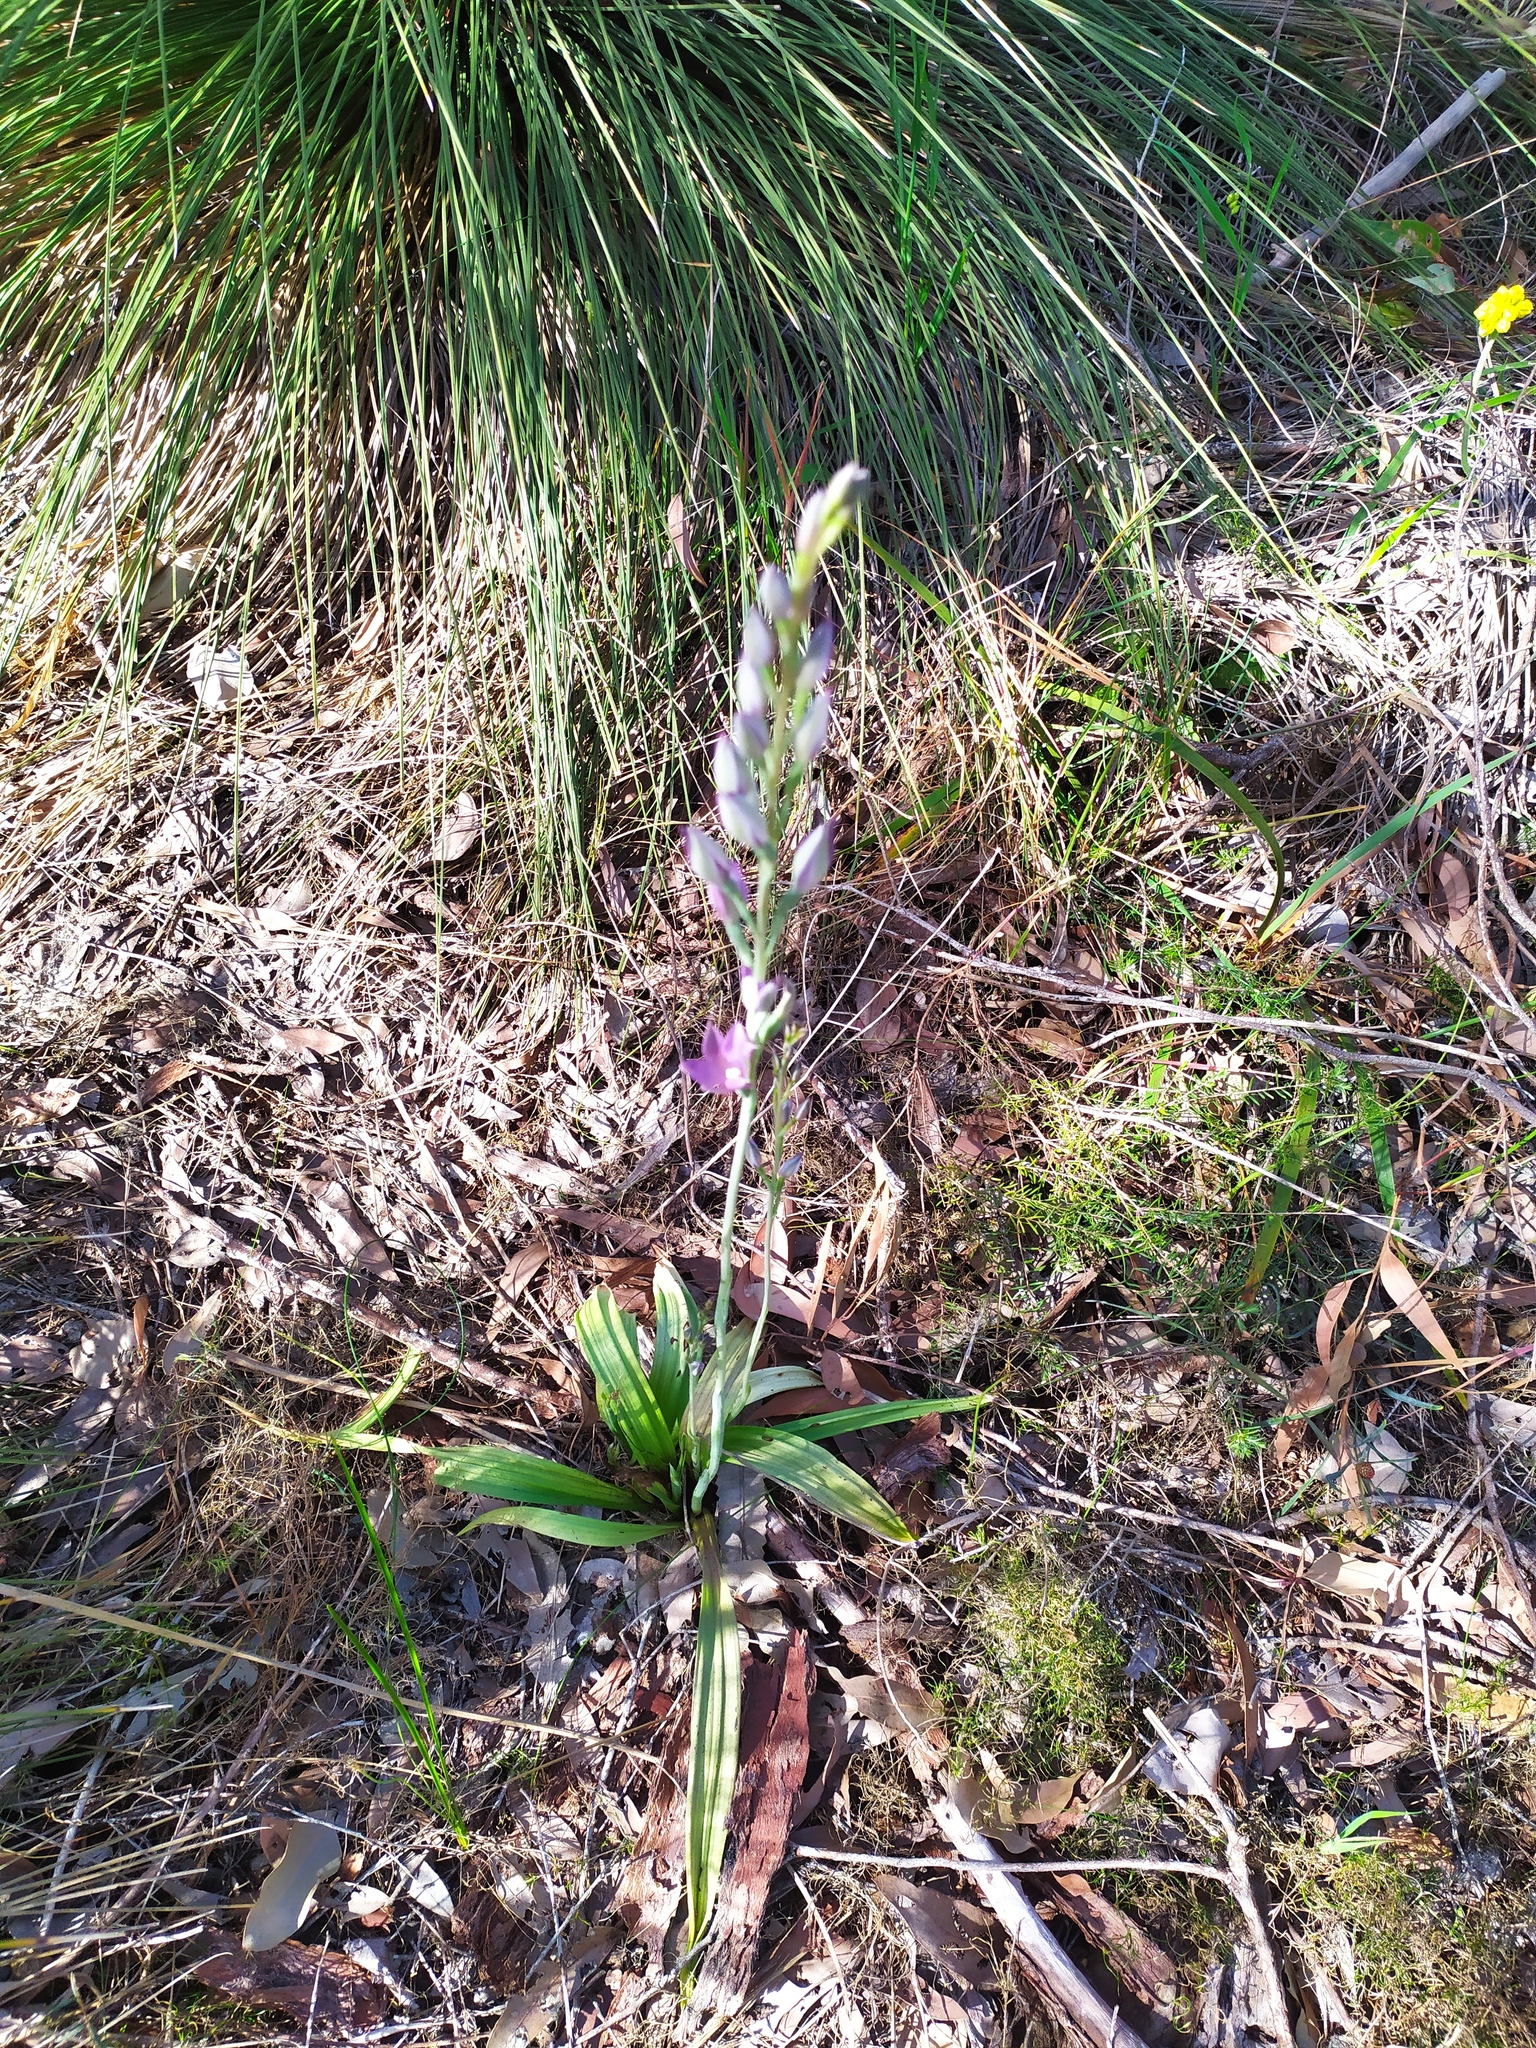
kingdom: Plantae
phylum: Tracheophyta
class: Liliopsida
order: Asparagales
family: Orchidaceae
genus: Thelymitra
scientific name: Thelymitra macrophylla
